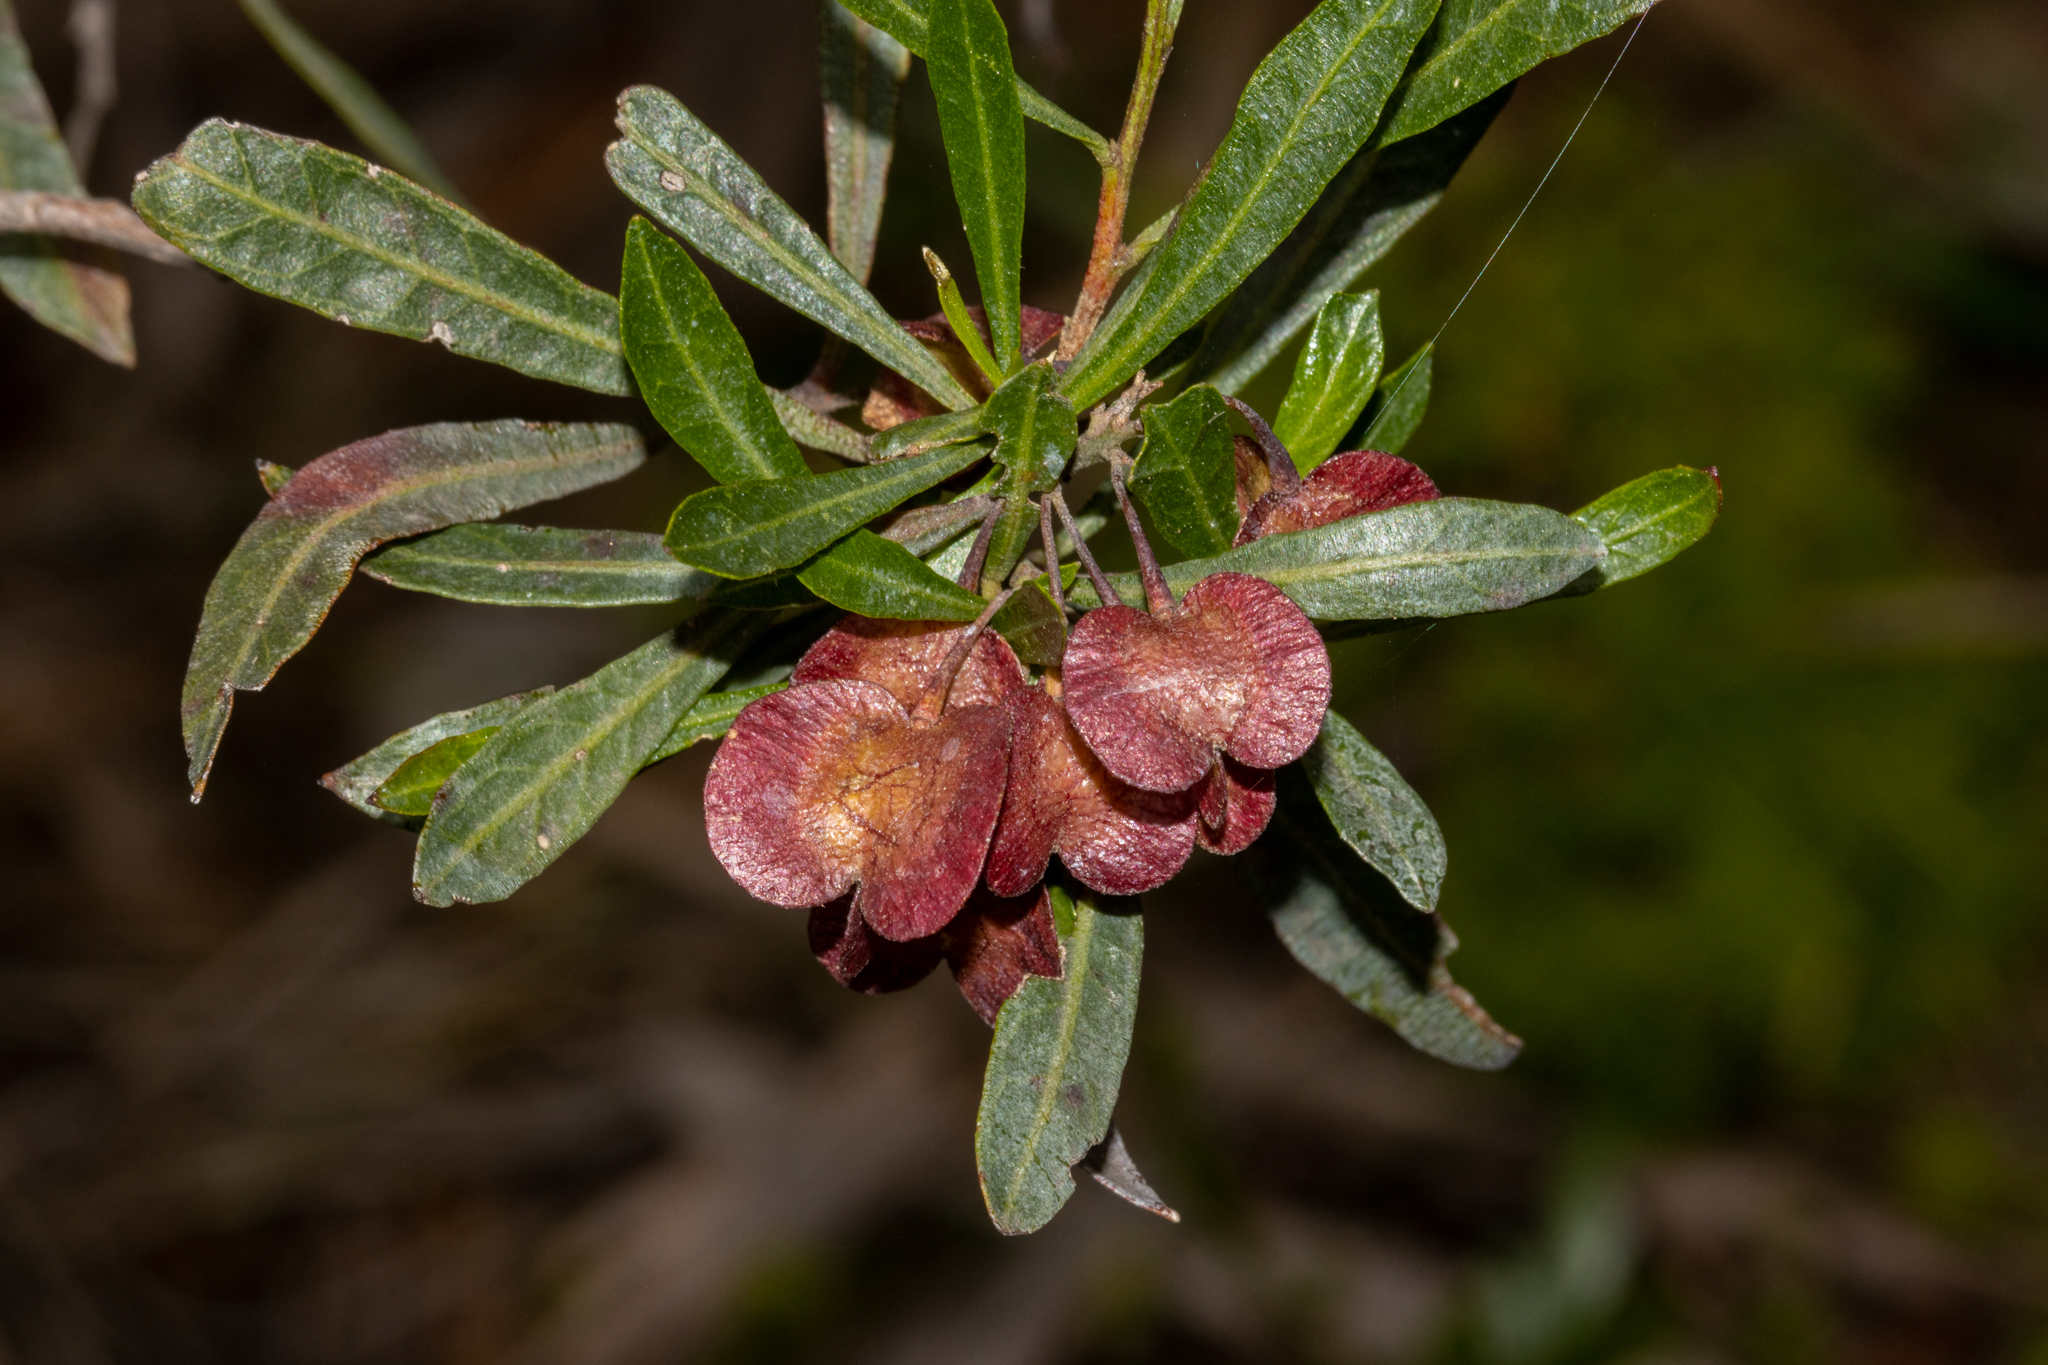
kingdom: Plantae
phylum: Tracheophyta
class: Magnoliopsida
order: Sapindales
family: Sapindaceae
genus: Dodonaea
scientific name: Dodonaea viscosa
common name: Hopbush
